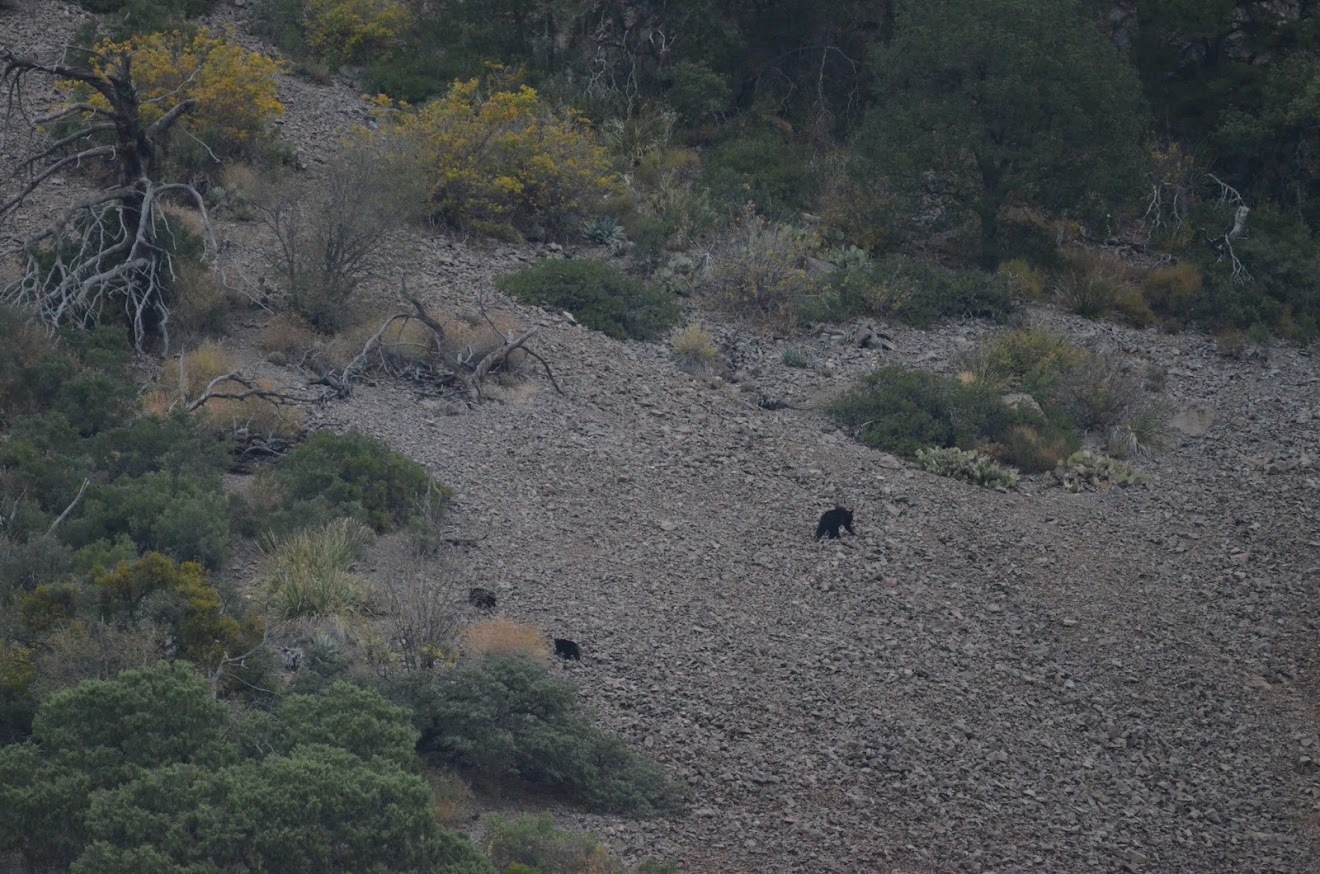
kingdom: Animalia
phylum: Chordata
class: Mammalia
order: Carnivora
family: Ursidae
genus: Ursus
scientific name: Ursus americanus
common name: American black bear
